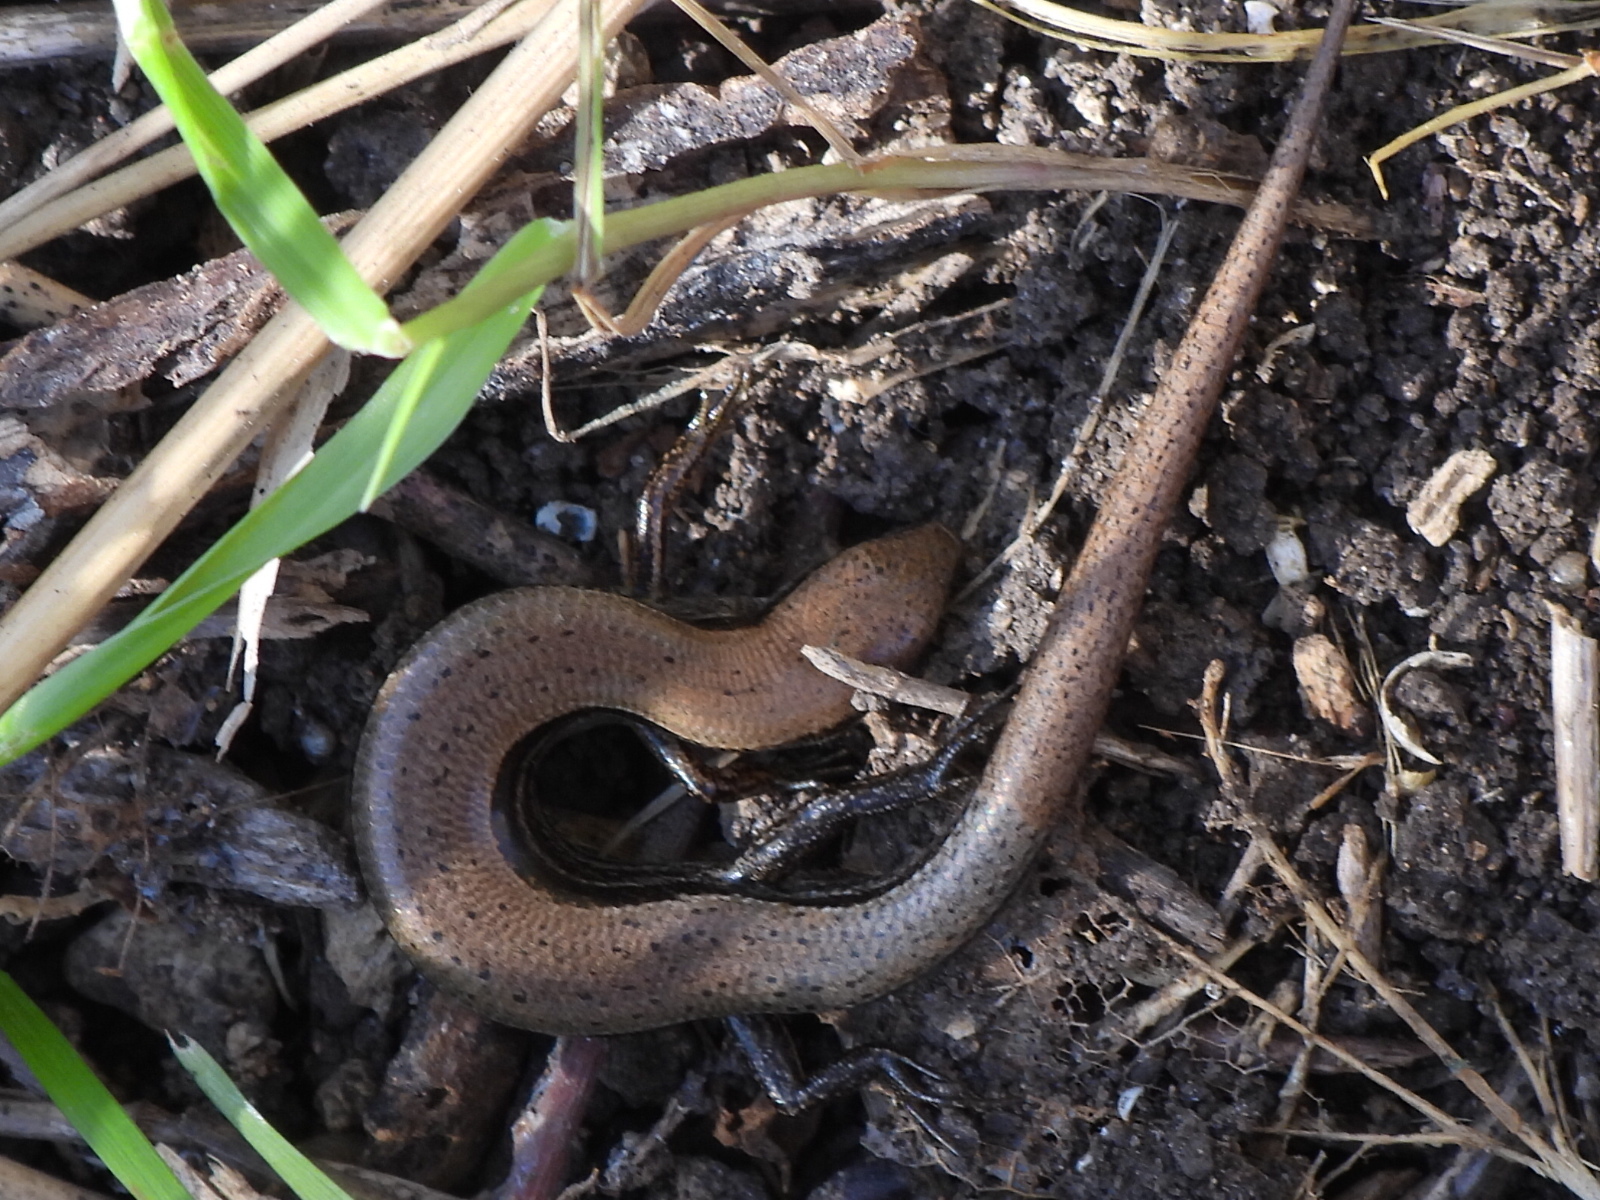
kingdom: Animalia
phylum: Chordata
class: Squamata
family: Scincidae
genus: Scincella
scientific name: Scincella lateralis
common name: Ground skink
